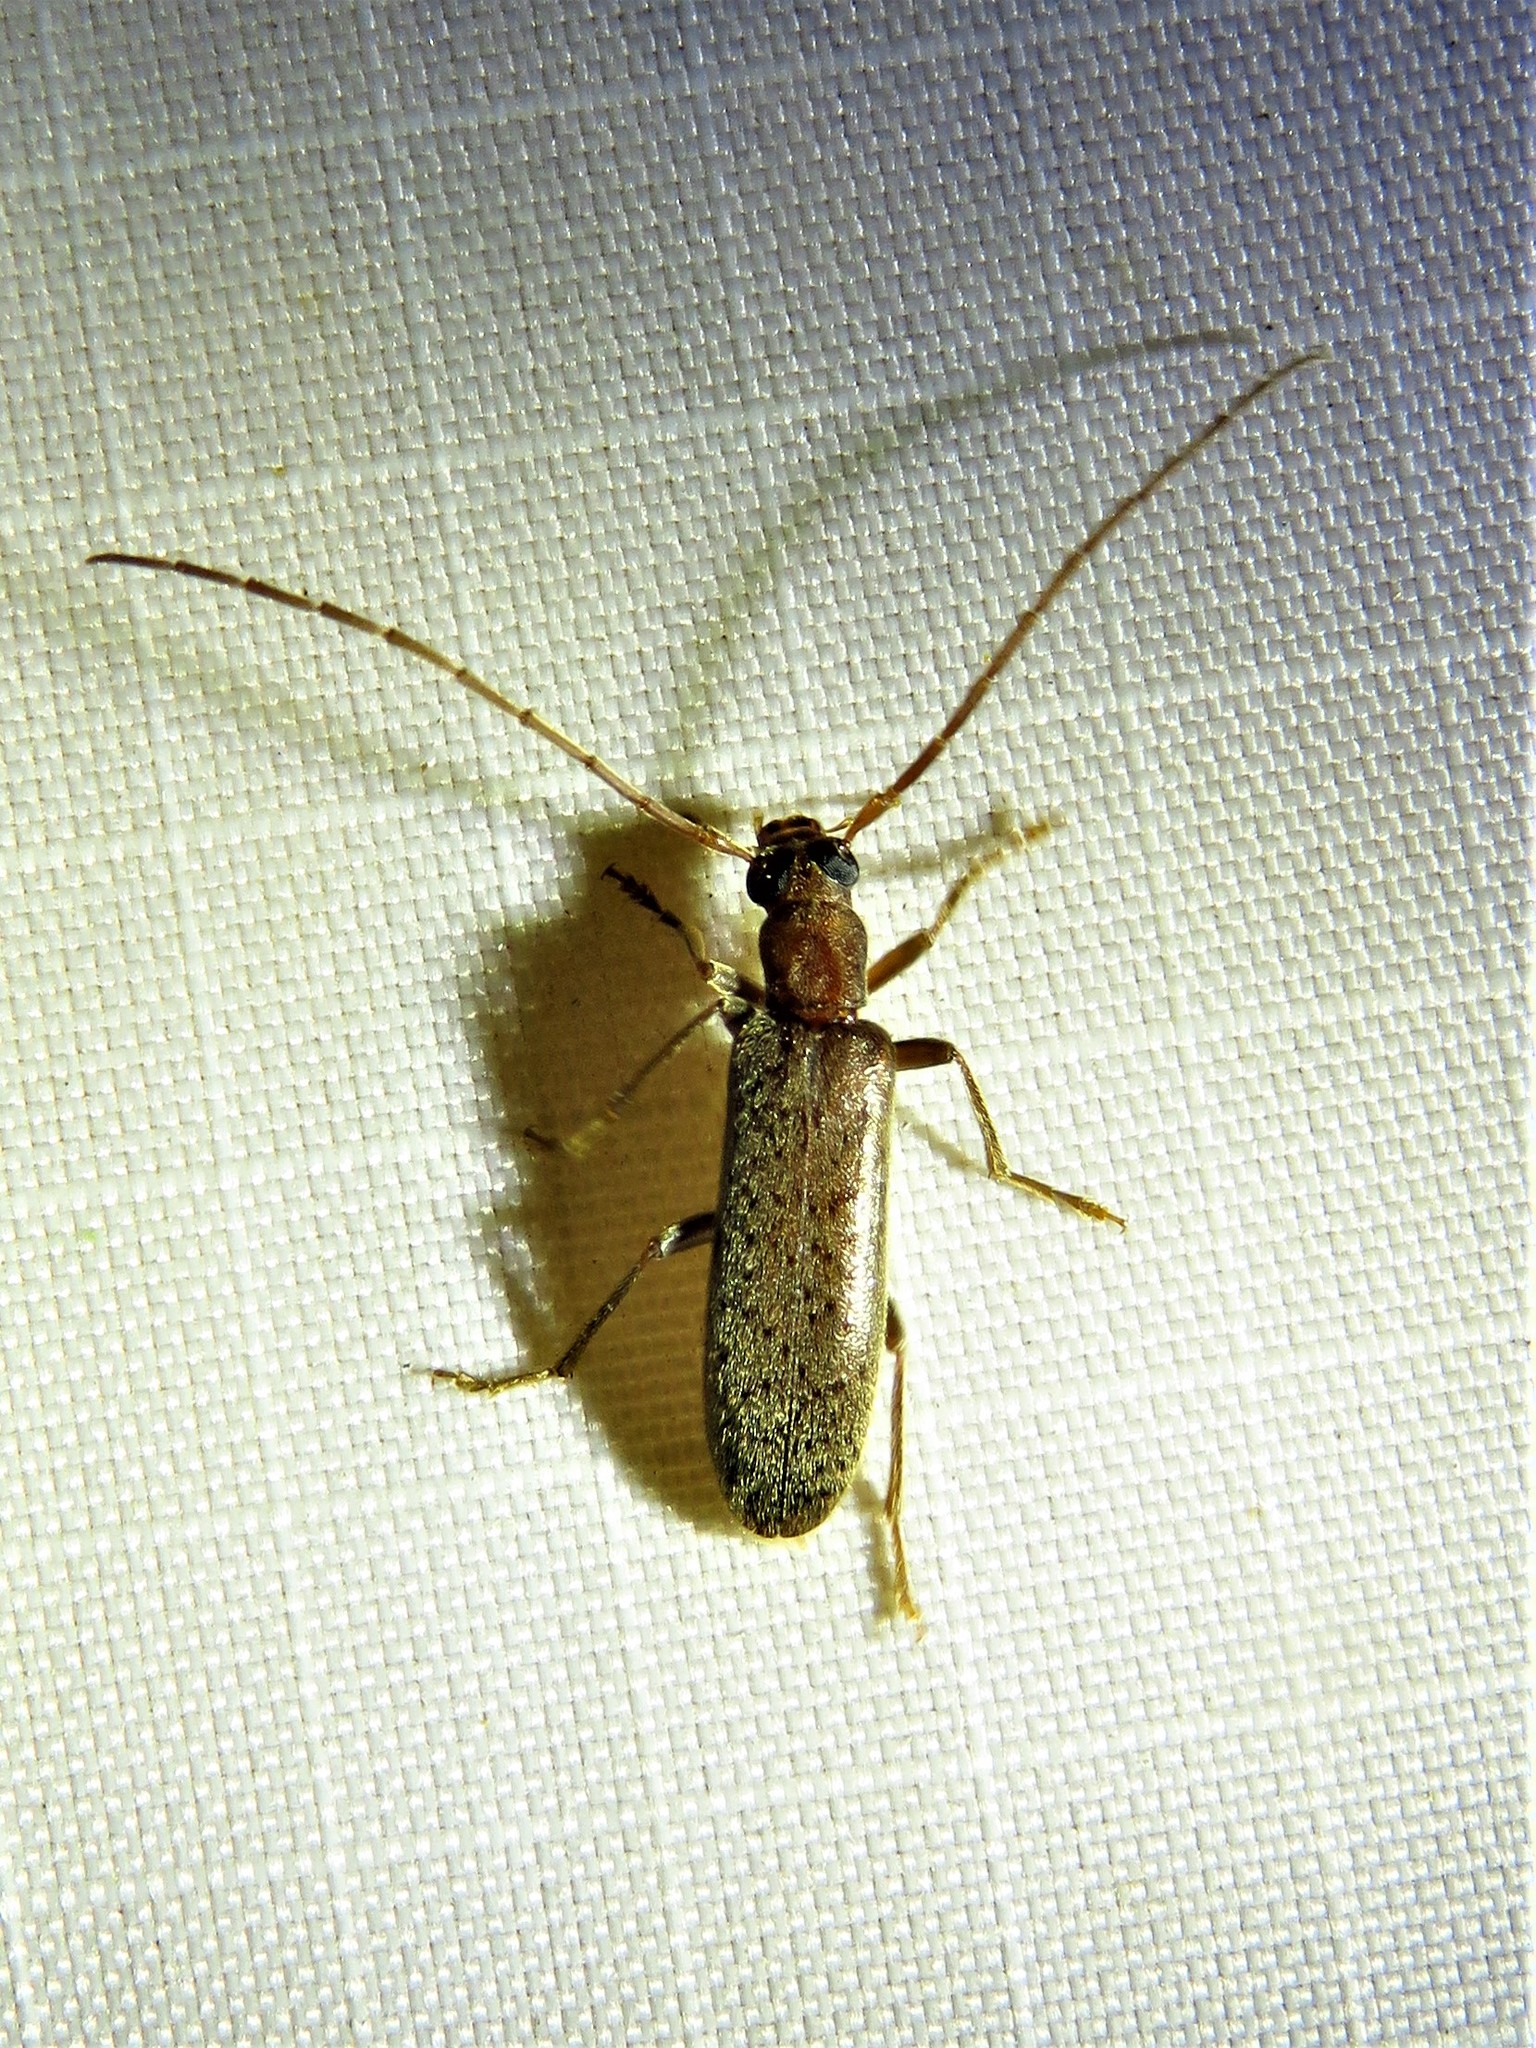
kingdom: Animalia
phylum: Arthropoda
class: Insecta
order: Coleoptera
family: Oedemeridae
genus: Sparedrus
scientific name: Sparedrus aspersus
